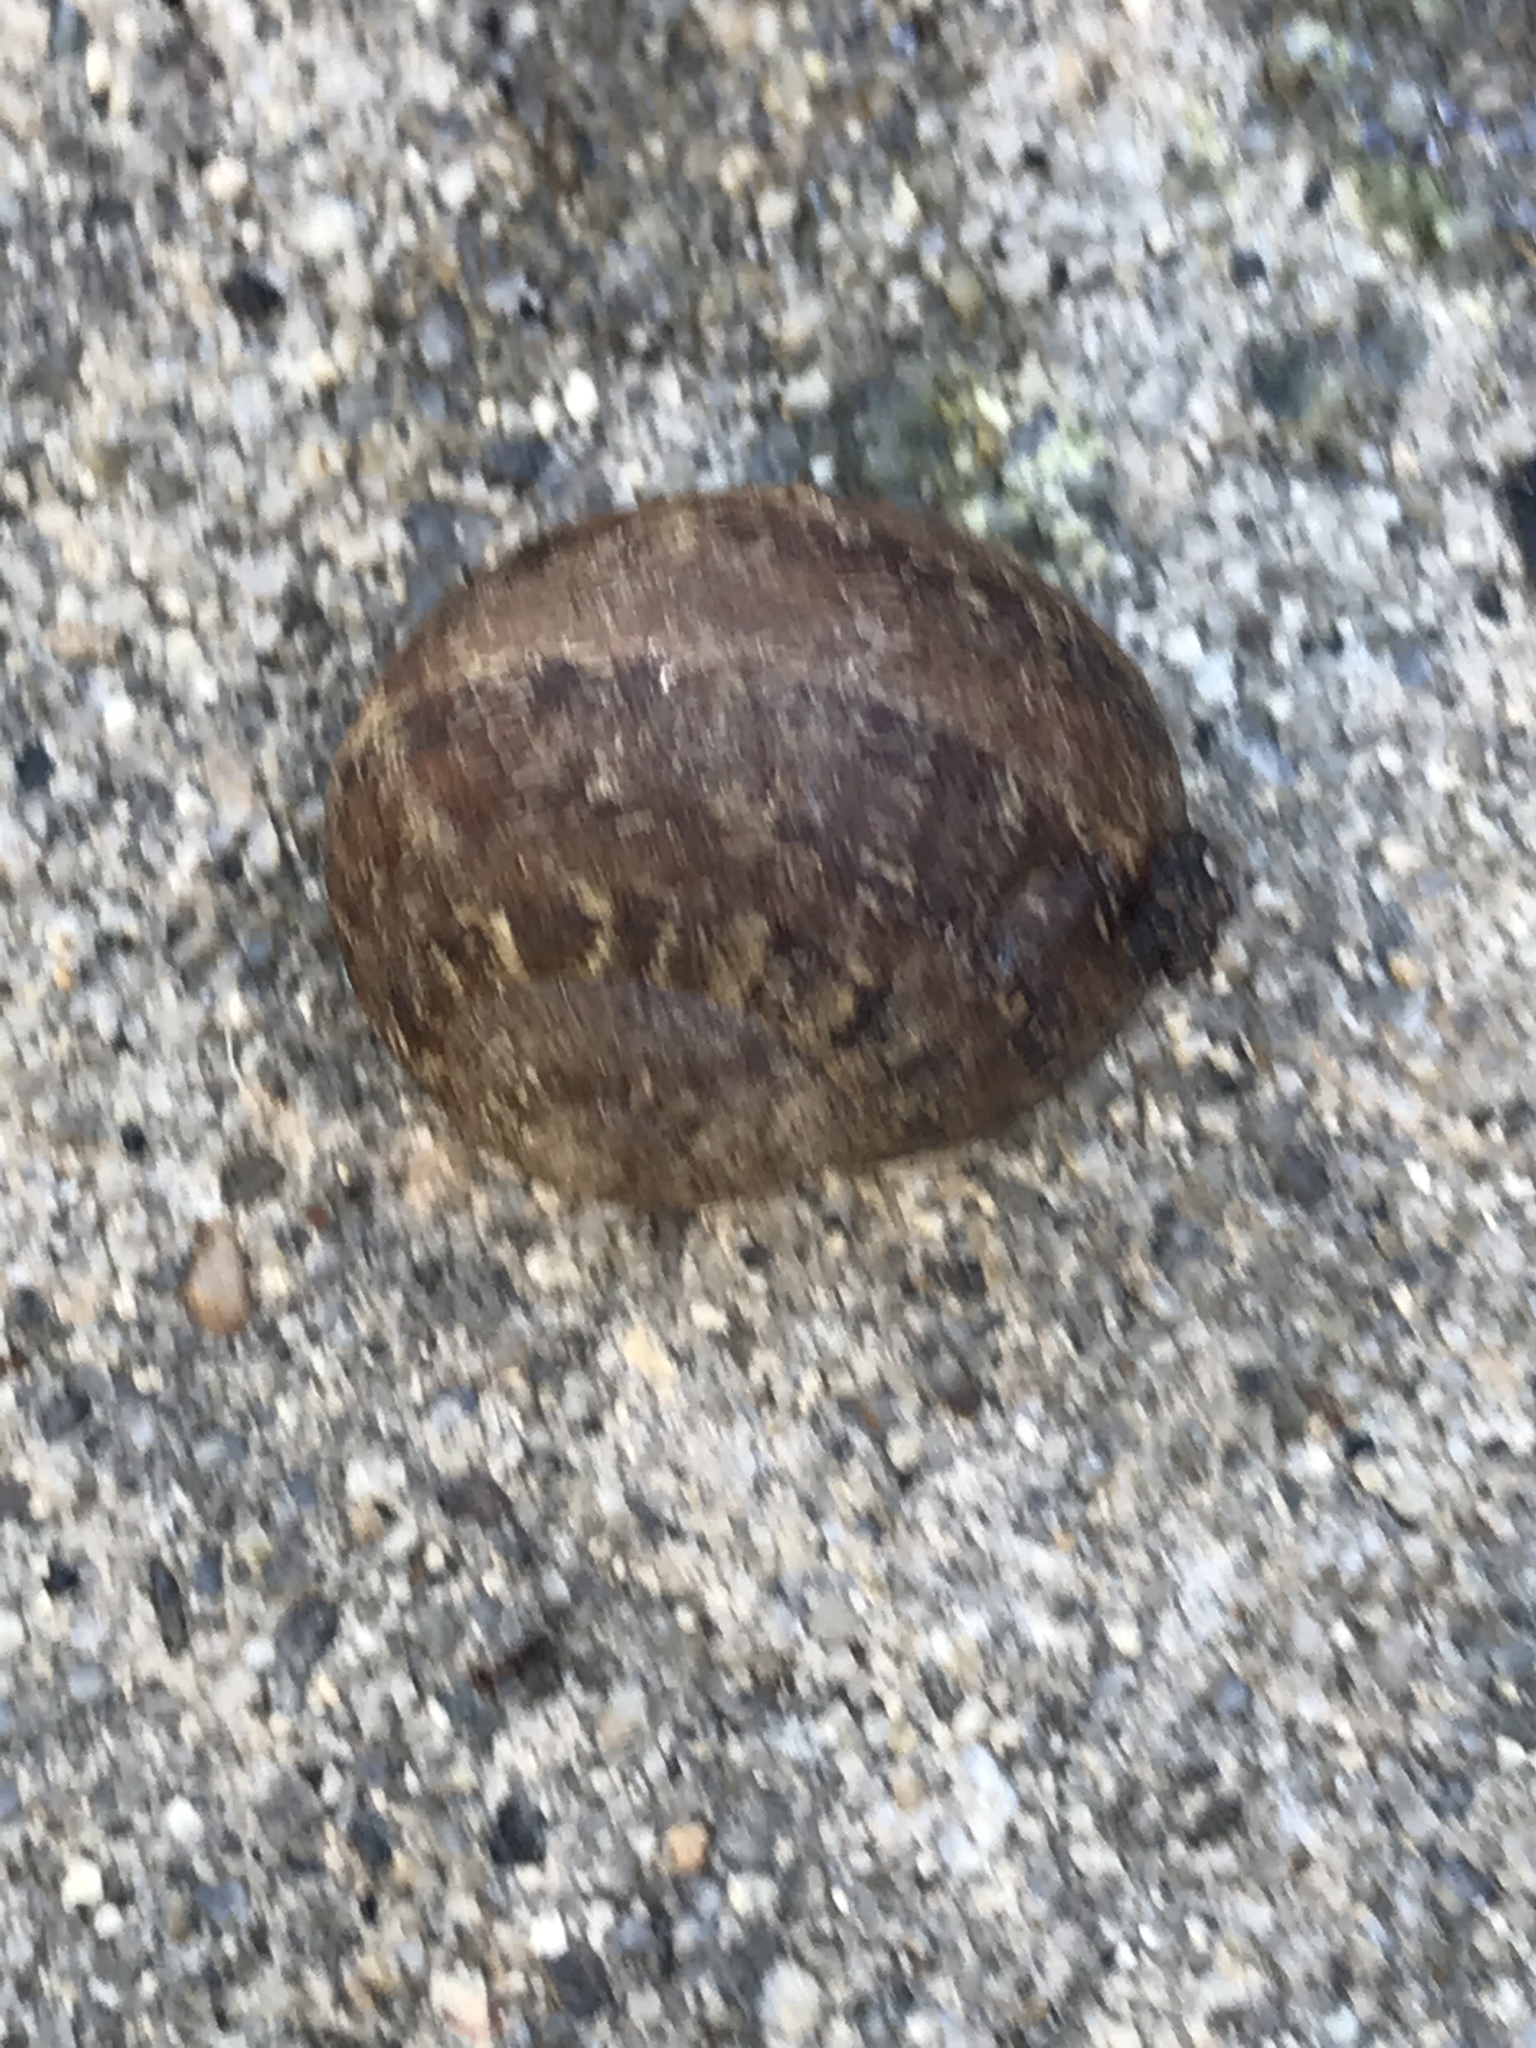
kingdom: Animalia
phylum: Mollusca
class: Gastropoda
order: Stylommatophora
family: Helicidae
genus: Cornu
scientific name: Cornu aspersum
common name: Brown garden snail
